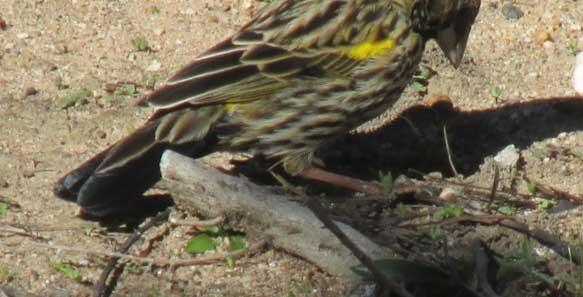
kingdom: Animalia
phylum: Chordata
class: Aves
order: Passeriformes
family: Ploceidae
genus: Euplectes
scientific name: Euplectes capensis
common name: Yellow bishop
